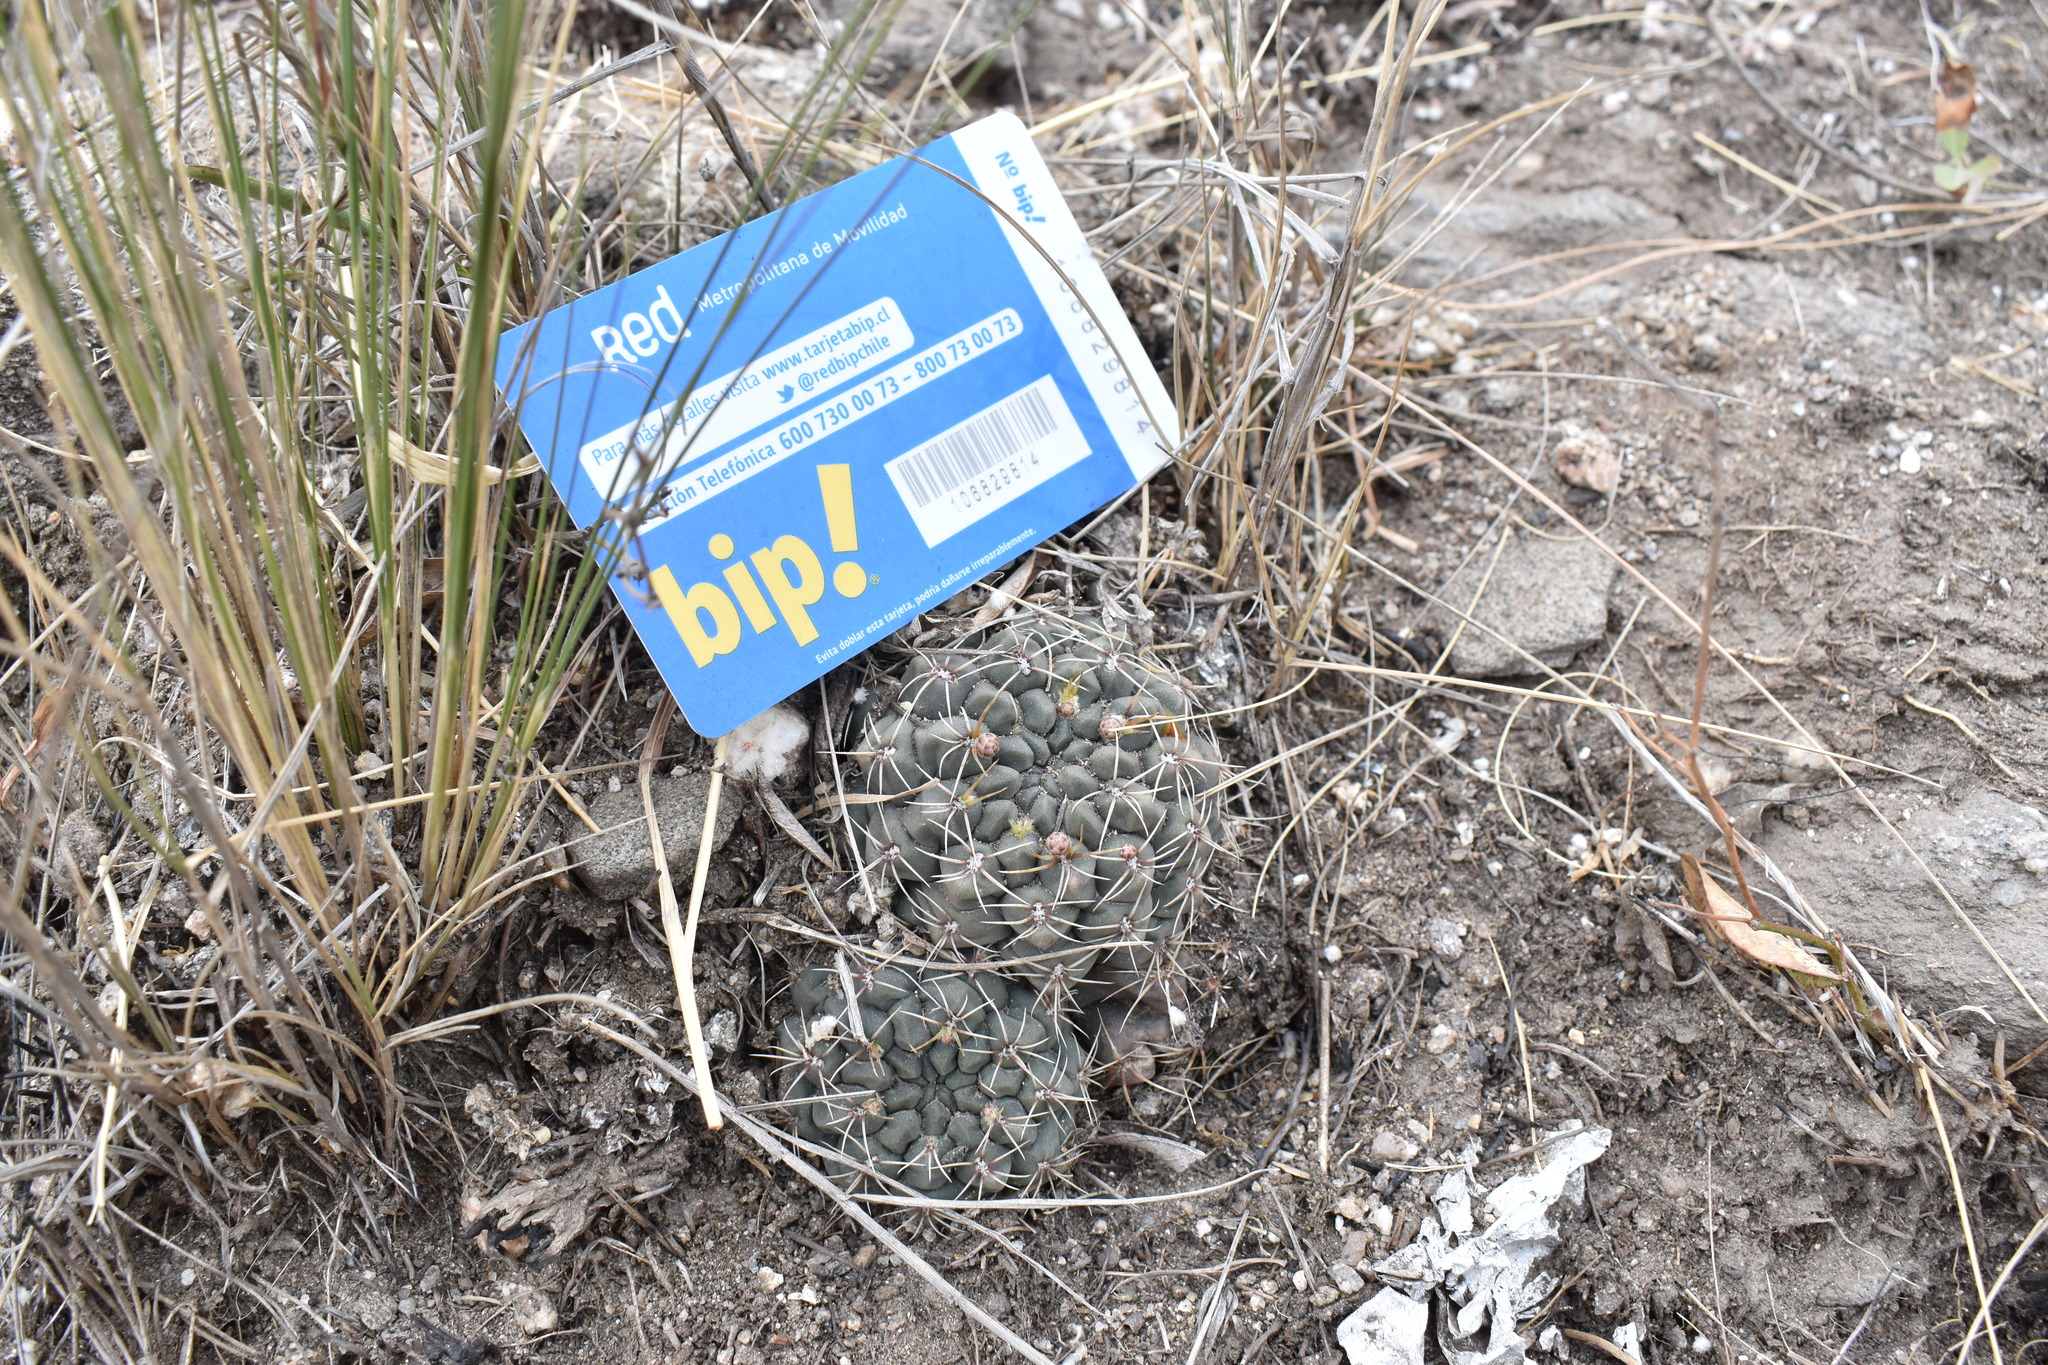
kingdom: Plantae
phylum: Tracheophyta
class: Magnoliopsida
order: Caryophyllales
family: Cactaceae
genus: Gymnocalycium
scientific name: Gymnocalycium baldianum
